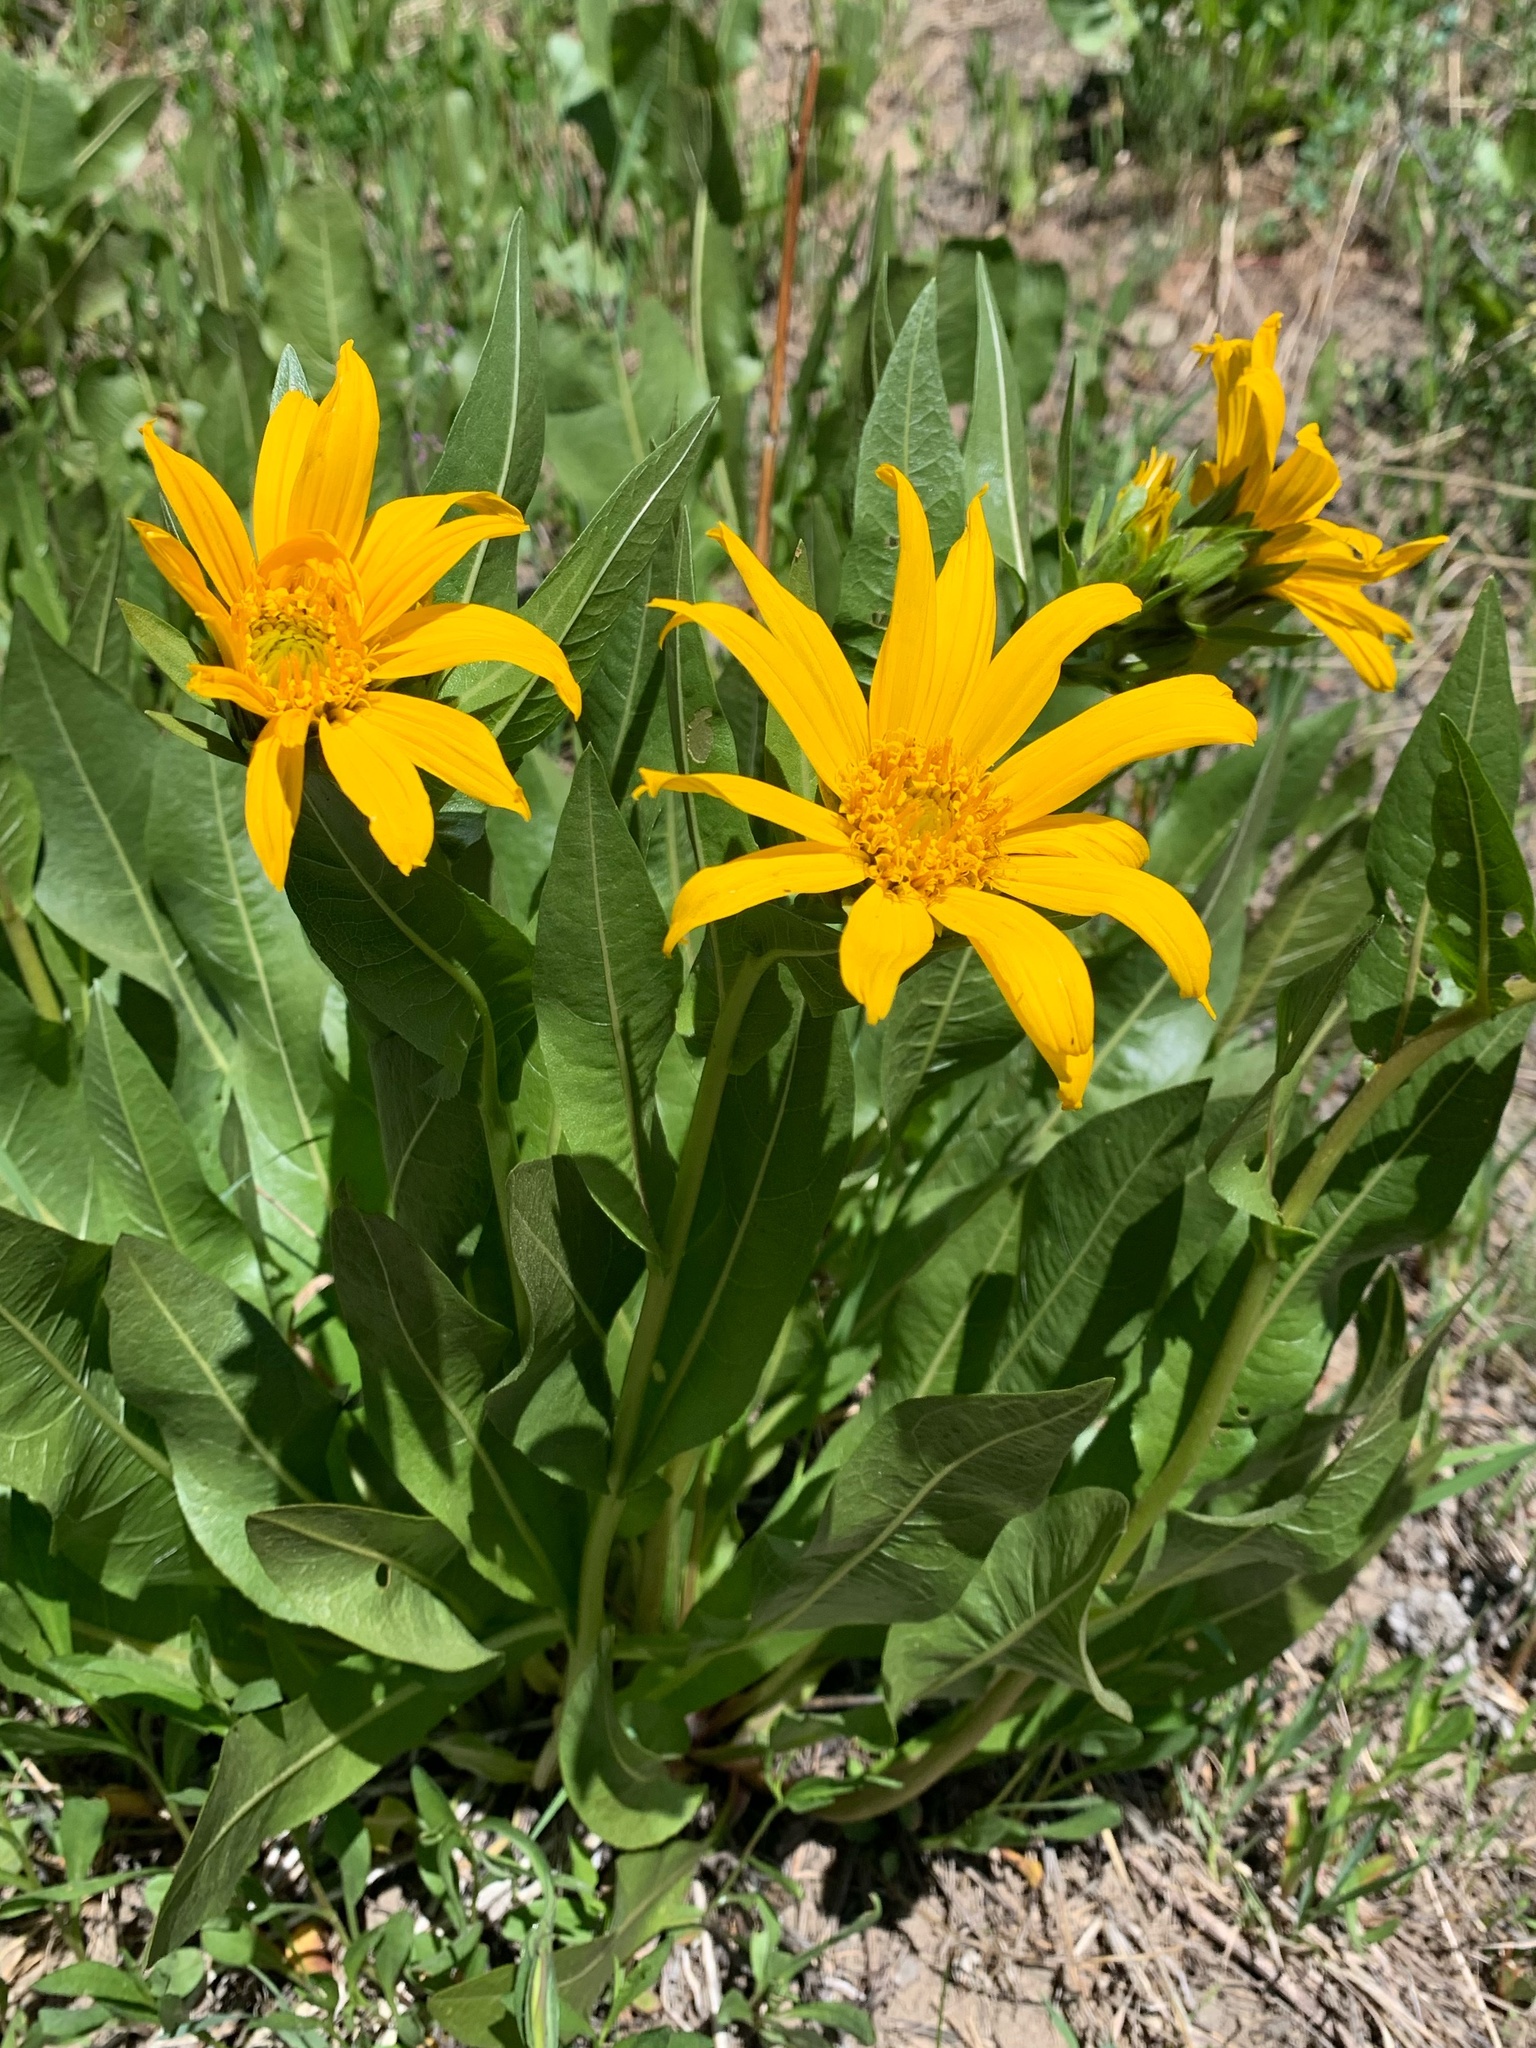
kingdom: Plantae
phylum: Tracheophyta
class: Magnoliopsida
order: Asterales
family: Asteraceae
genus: Wyethia
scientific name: Wyethia amplexicaulis
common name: Northern mule's-ears
